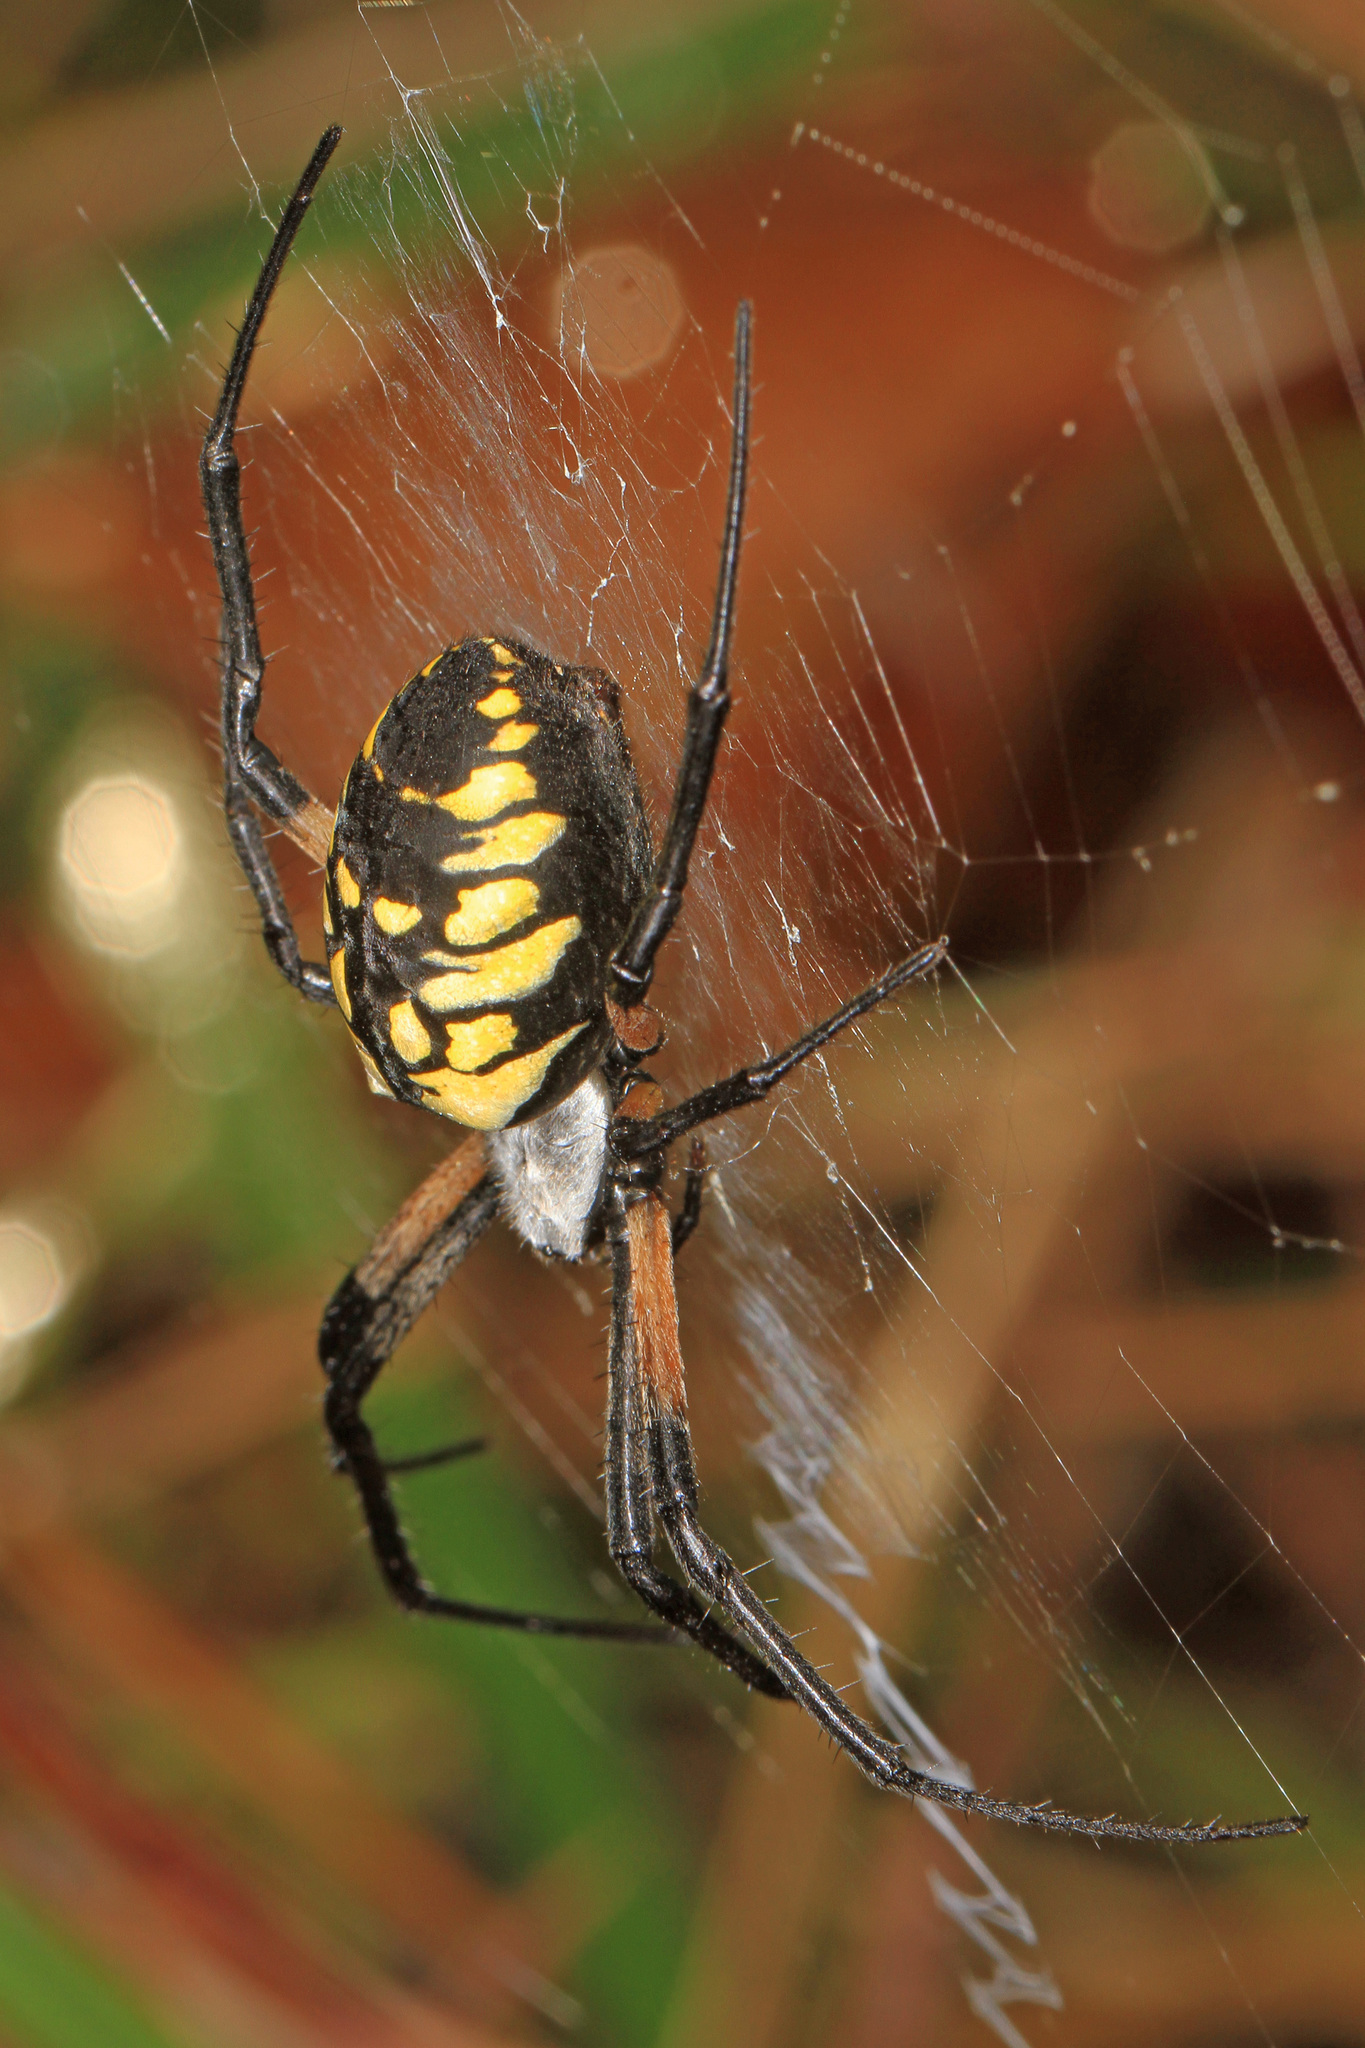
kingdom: Animalia
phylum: Arthropoda
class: Arachnida
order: Araneae
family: Araneidae
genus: Argiope
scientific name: Argiope aurantia
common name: Orb weavers
